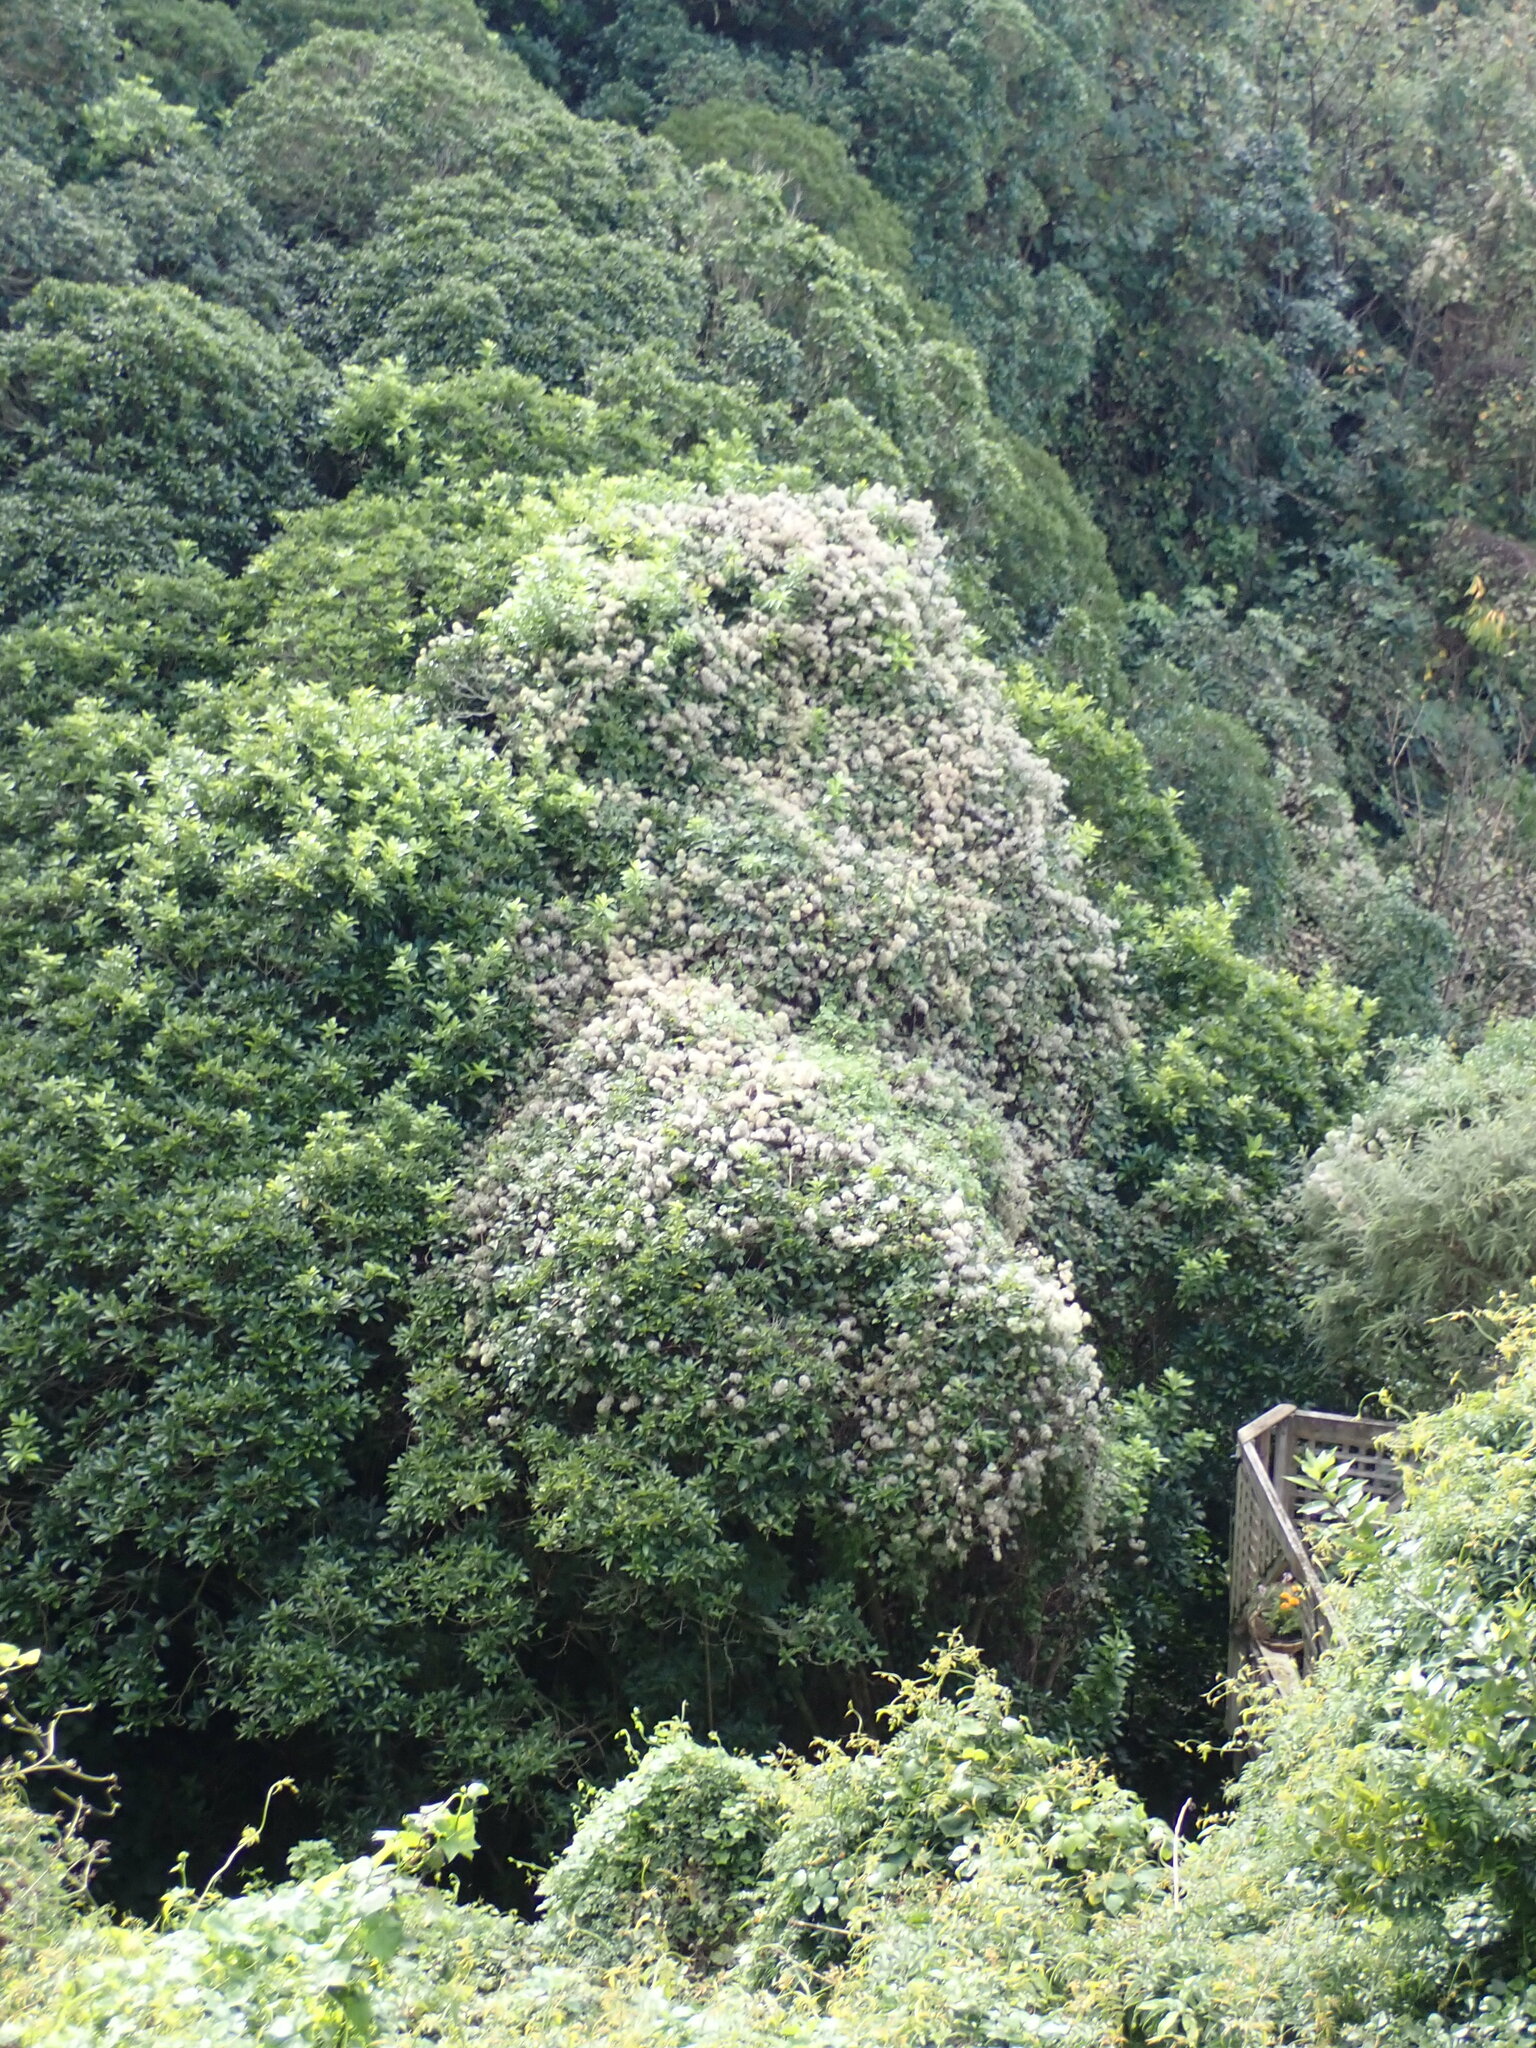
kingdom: Plantae
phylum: Tracheophyta
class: Magnoliopsida
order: Ranunculales
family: Ranunculaceae
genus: Clematis
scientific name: Clematis vitalba
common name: Evergreen clematis
